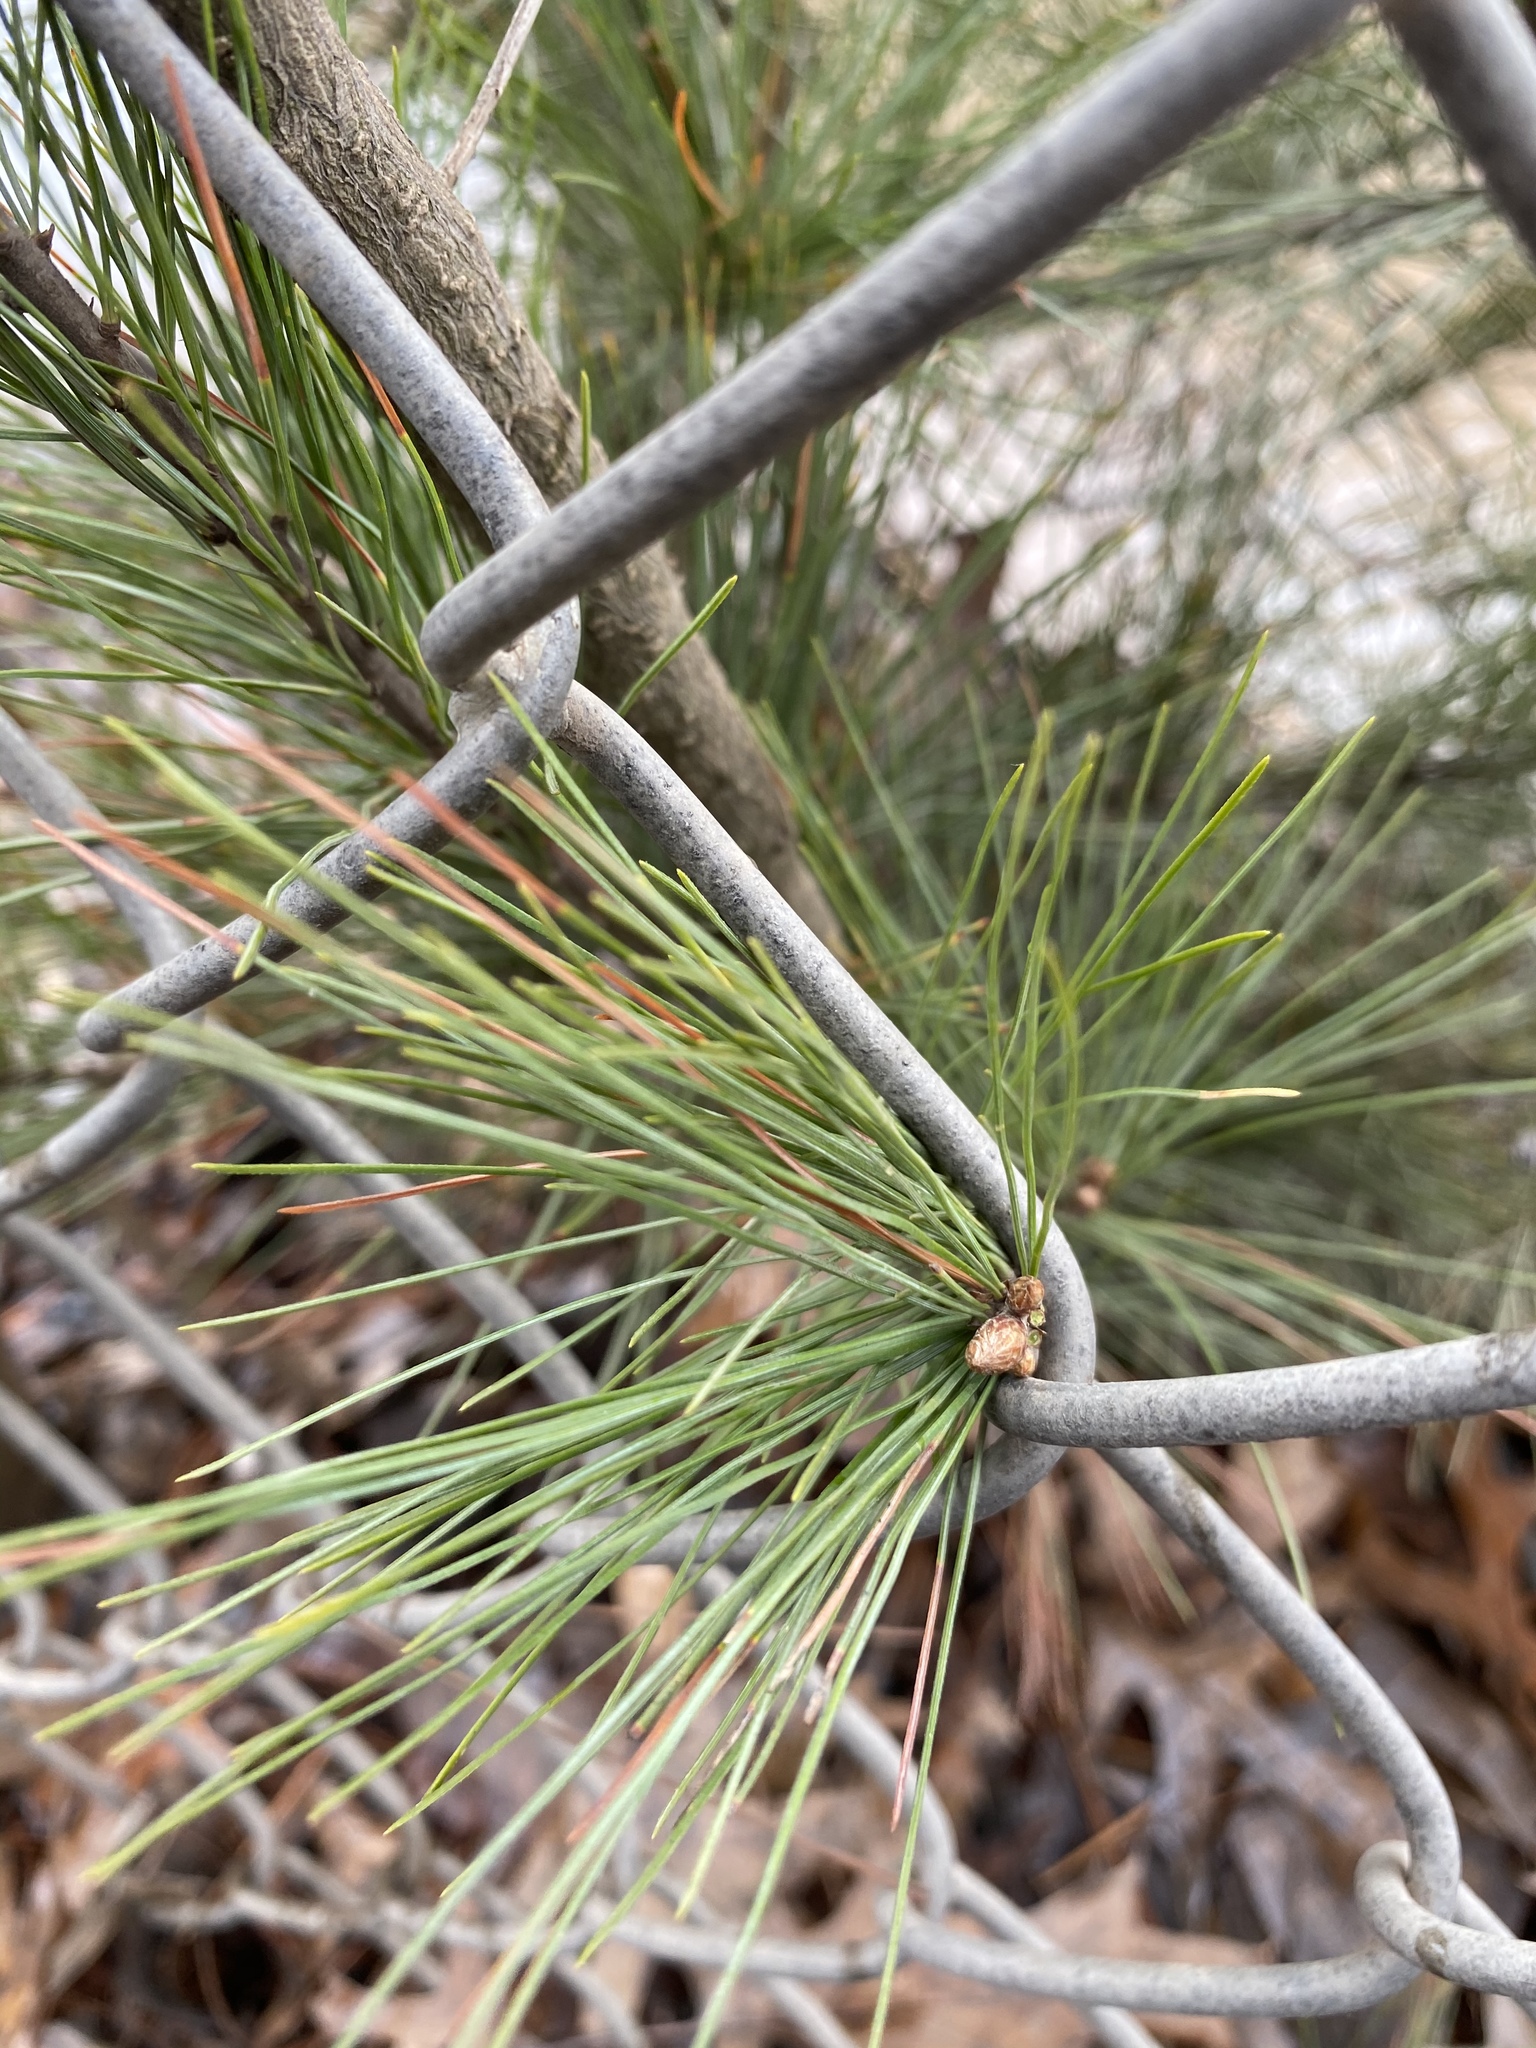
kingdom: Plantae
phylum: Tracheophyta
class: Pinopsida
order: Pinales
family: Pinaceae
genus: Pinus
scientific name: Pinus strobus
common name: Weymouth pine
